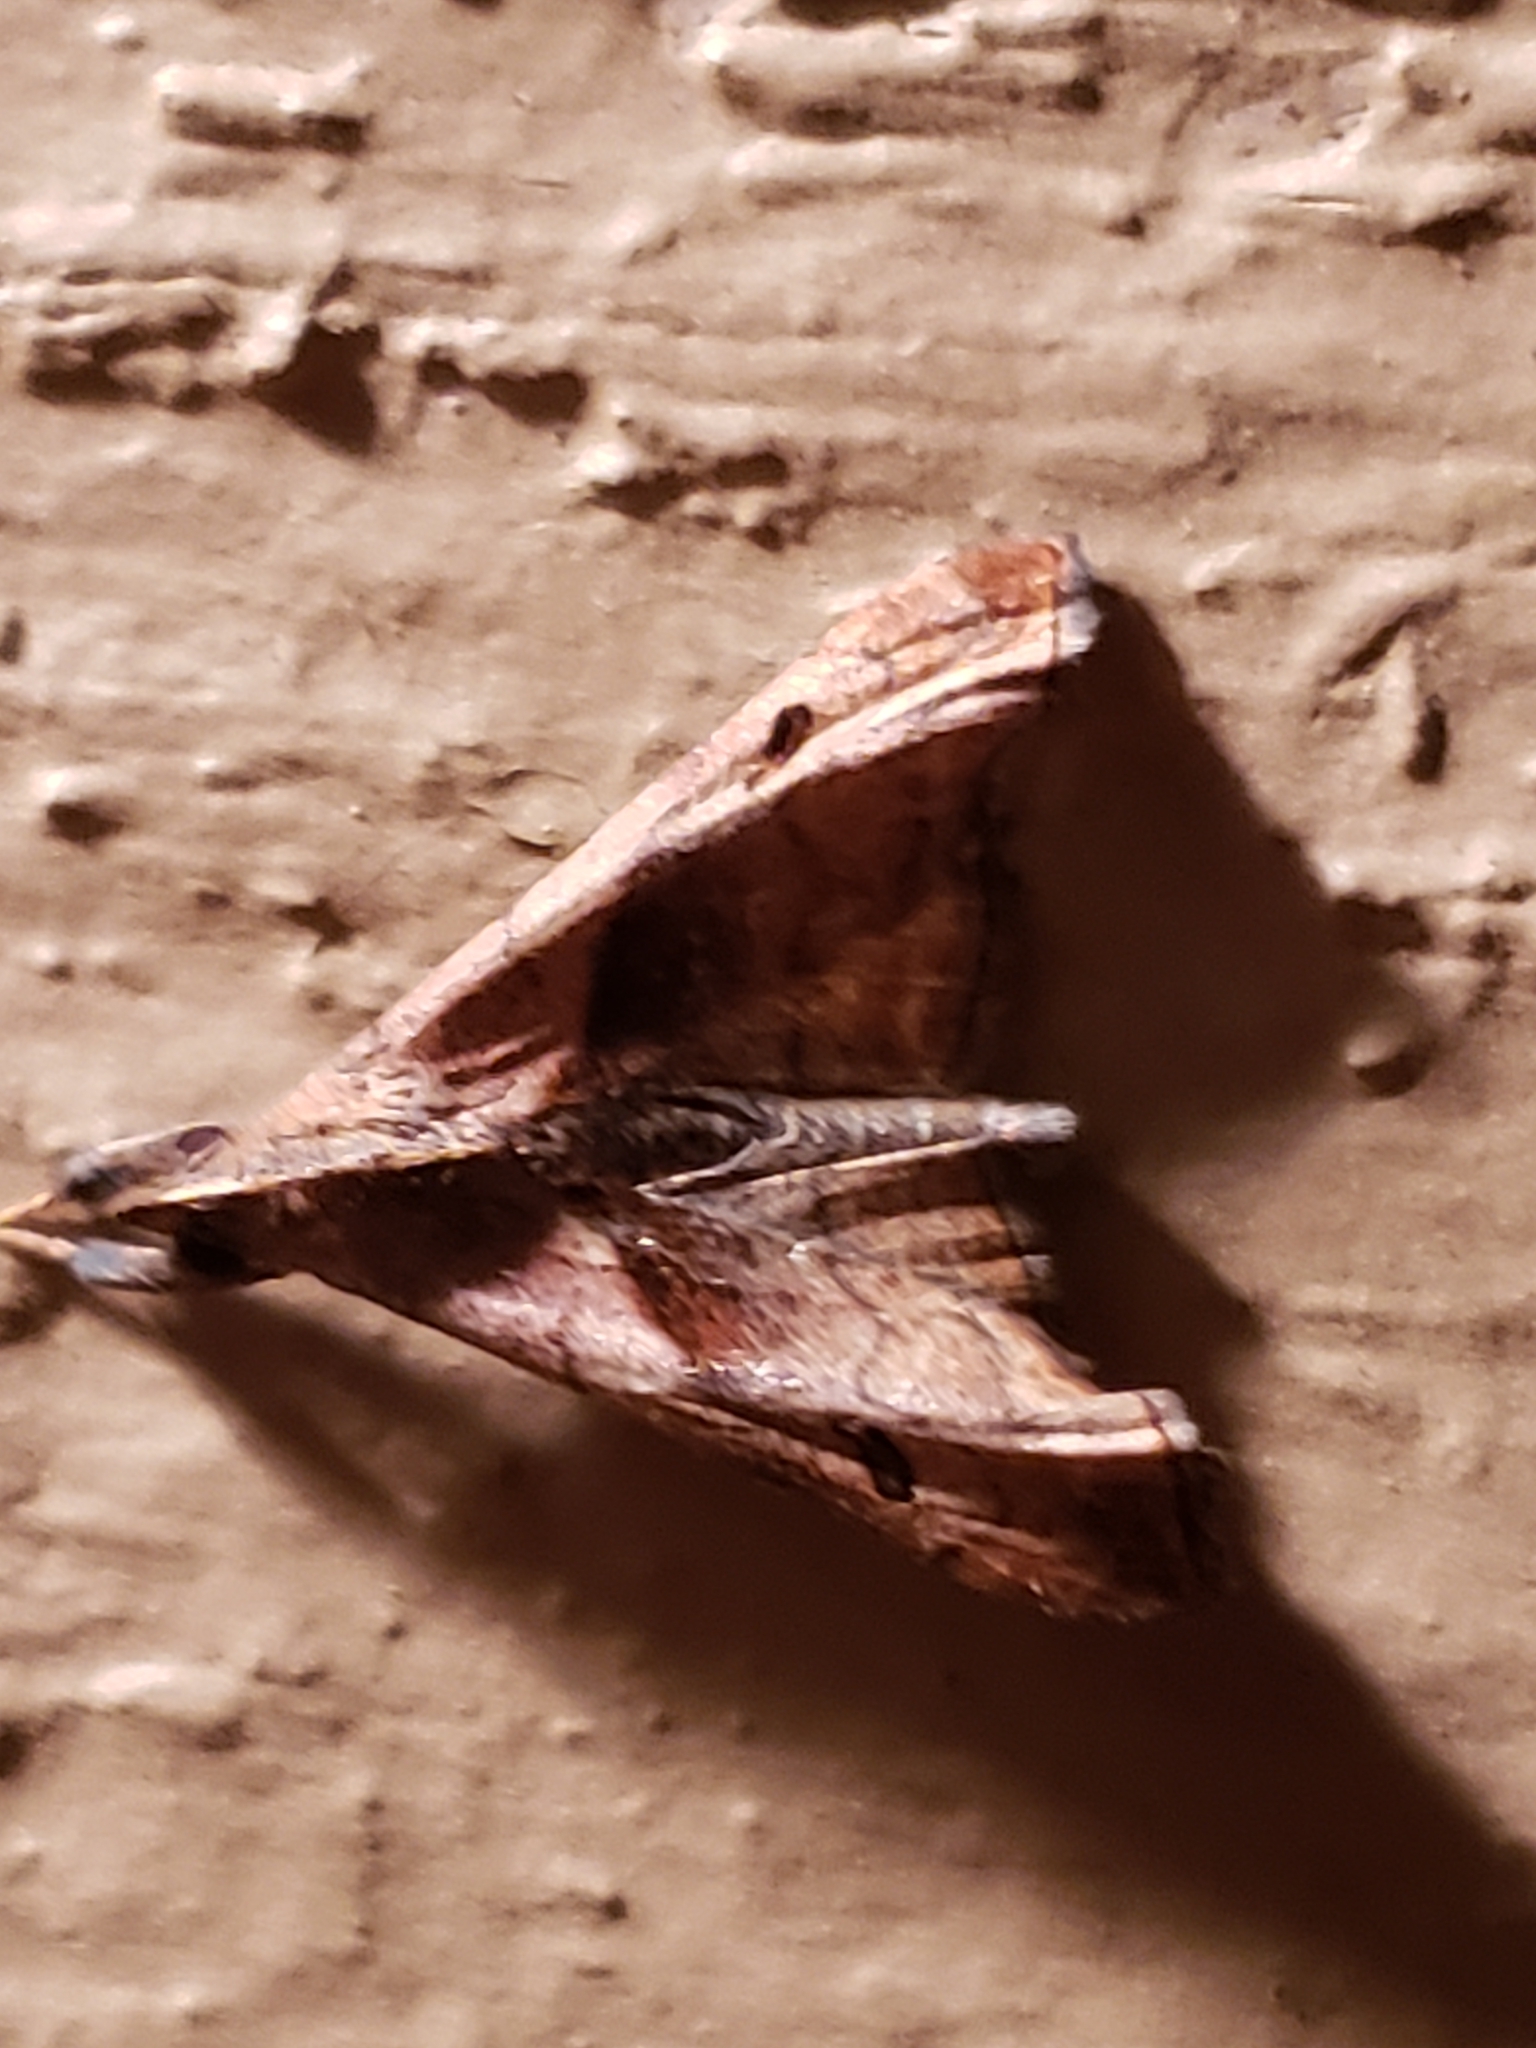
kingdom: Animalia
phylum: Arthropoda
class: Insecta
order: Lepidoptera
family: Erebidae
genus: Palthis
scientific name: Palthis angulalis
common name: Dark-spotted palthis moth
